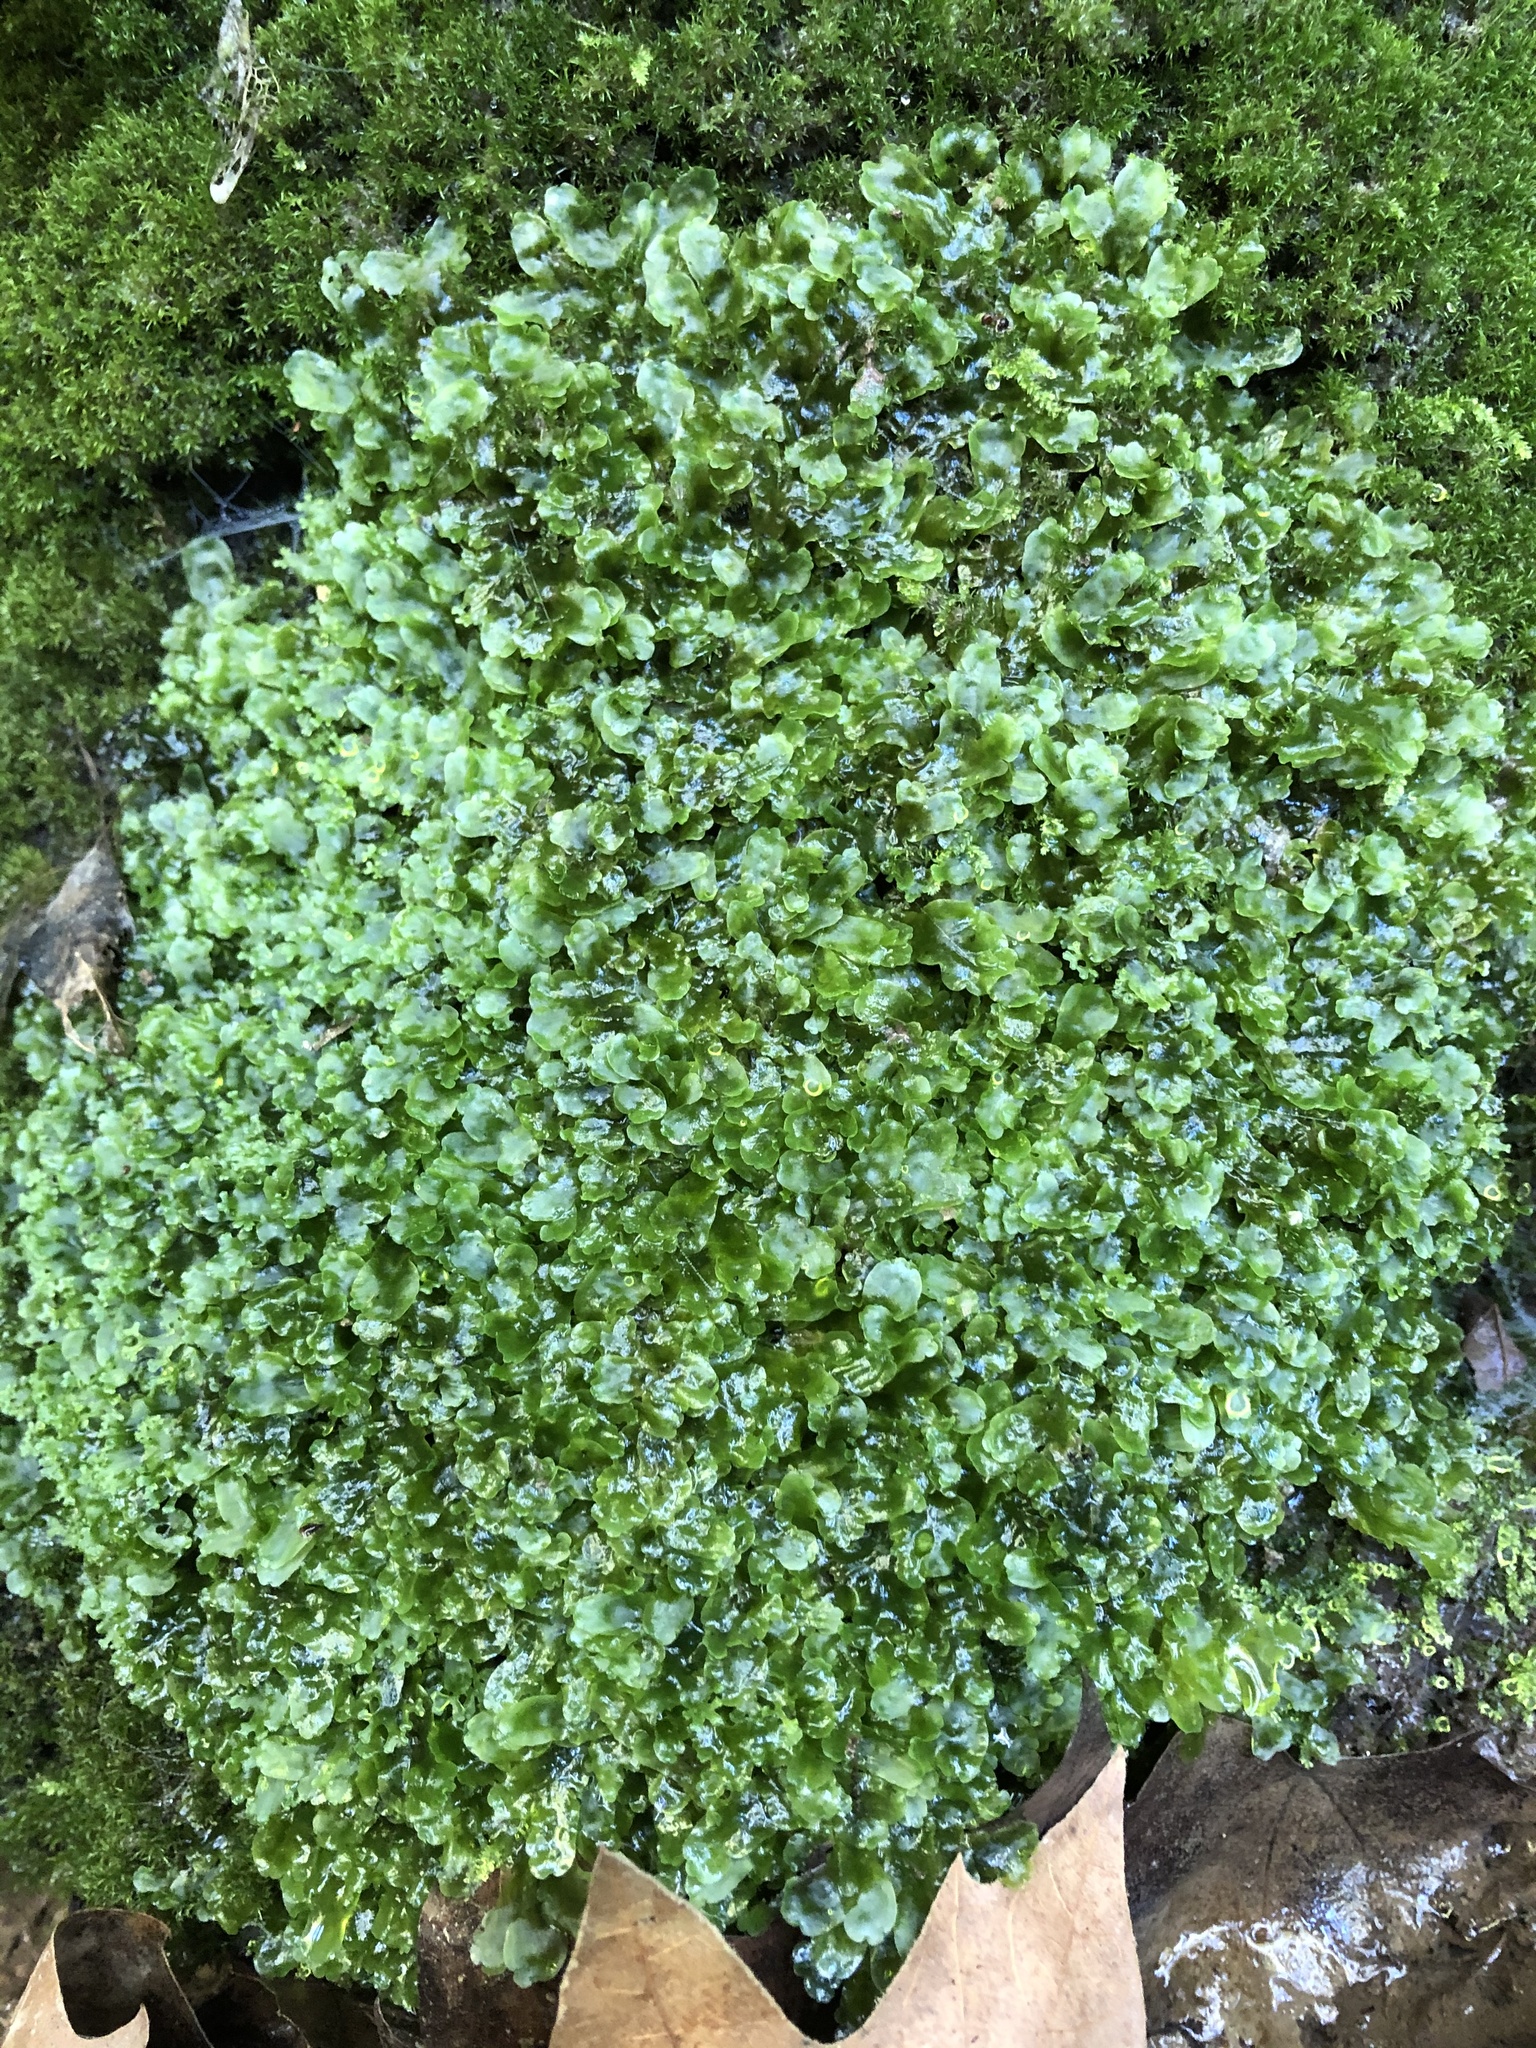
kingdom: Plantae
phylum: Marchantiophyta
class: Jungermanniopsida
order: Pelliales
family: Pelliaceae
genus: Apopellia
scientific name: Apopellia endiviifolia
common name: Endive pellia
